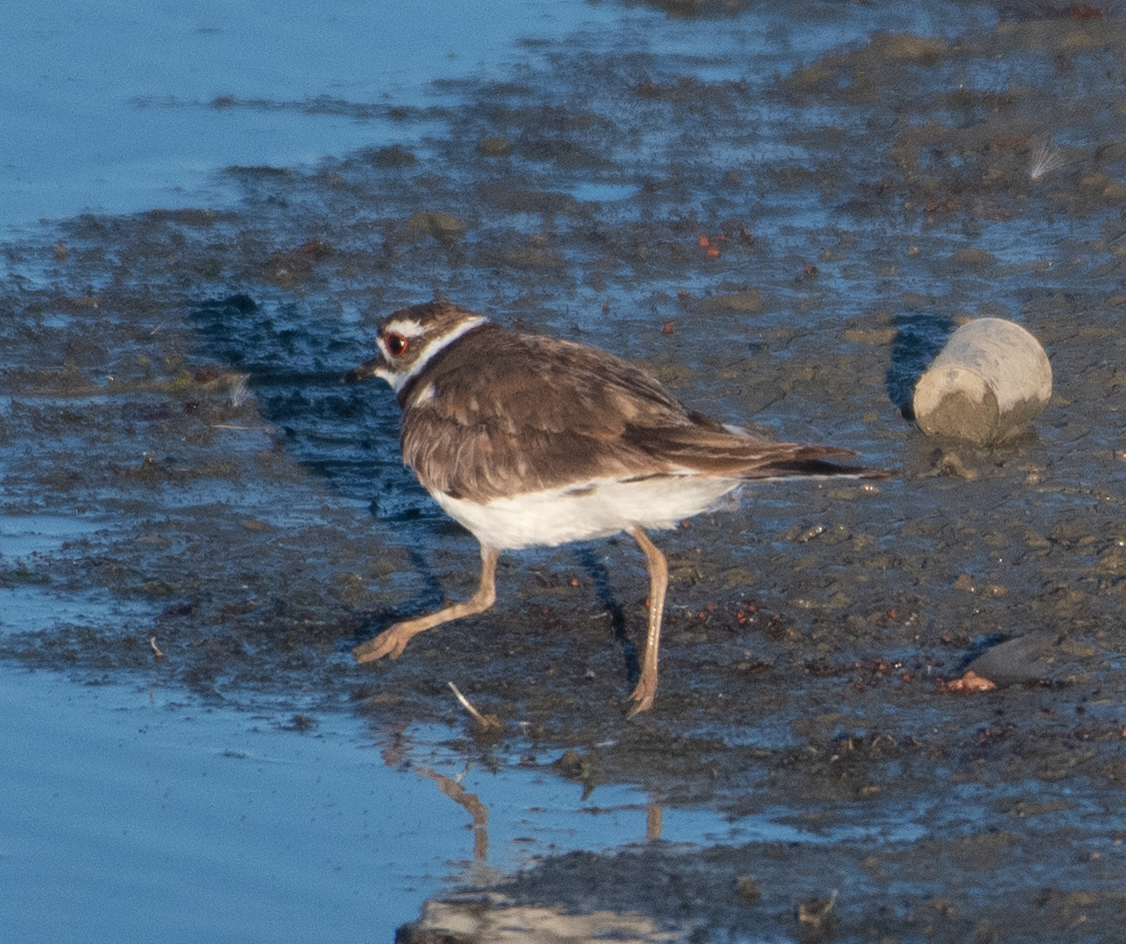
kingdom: Animalia
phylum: Chordata
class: Aves
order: Charadriiformes
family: Charadriidae
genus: Charadrius
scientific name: Charadrius vociferus
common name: Killdeer
